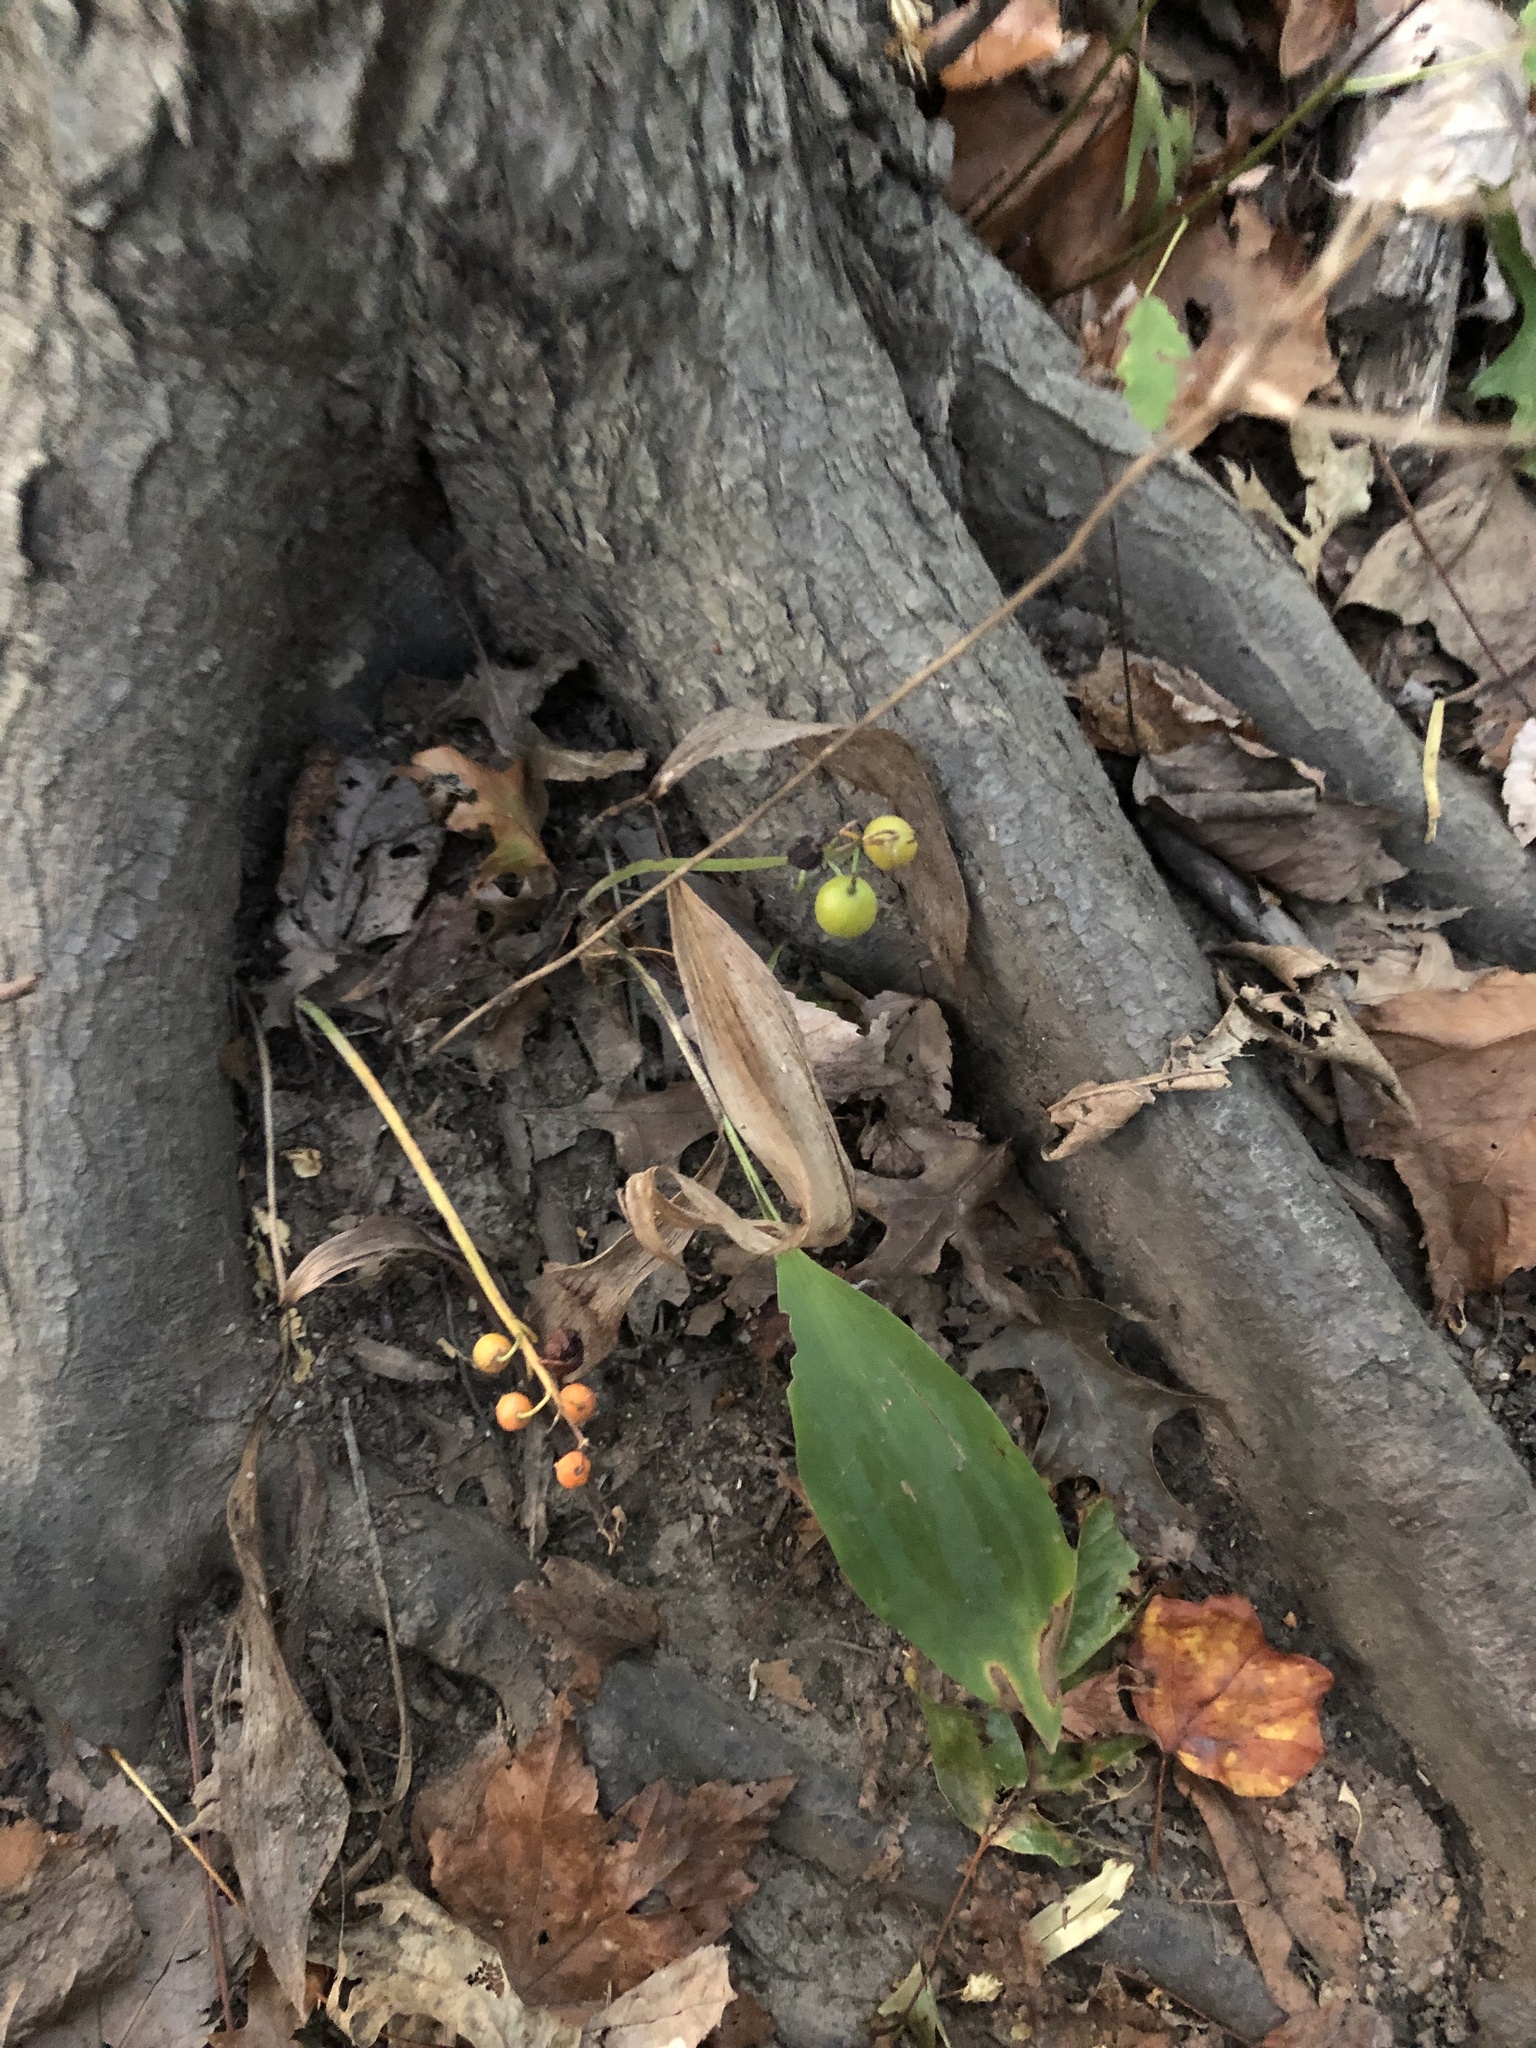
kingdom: Plantae
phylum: Tracheophyta
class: Liliopsida
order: Asparagales
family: Asparagaceae
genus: Convallaria
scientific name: Convallaria majalis
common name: Lily-of-the-valley
